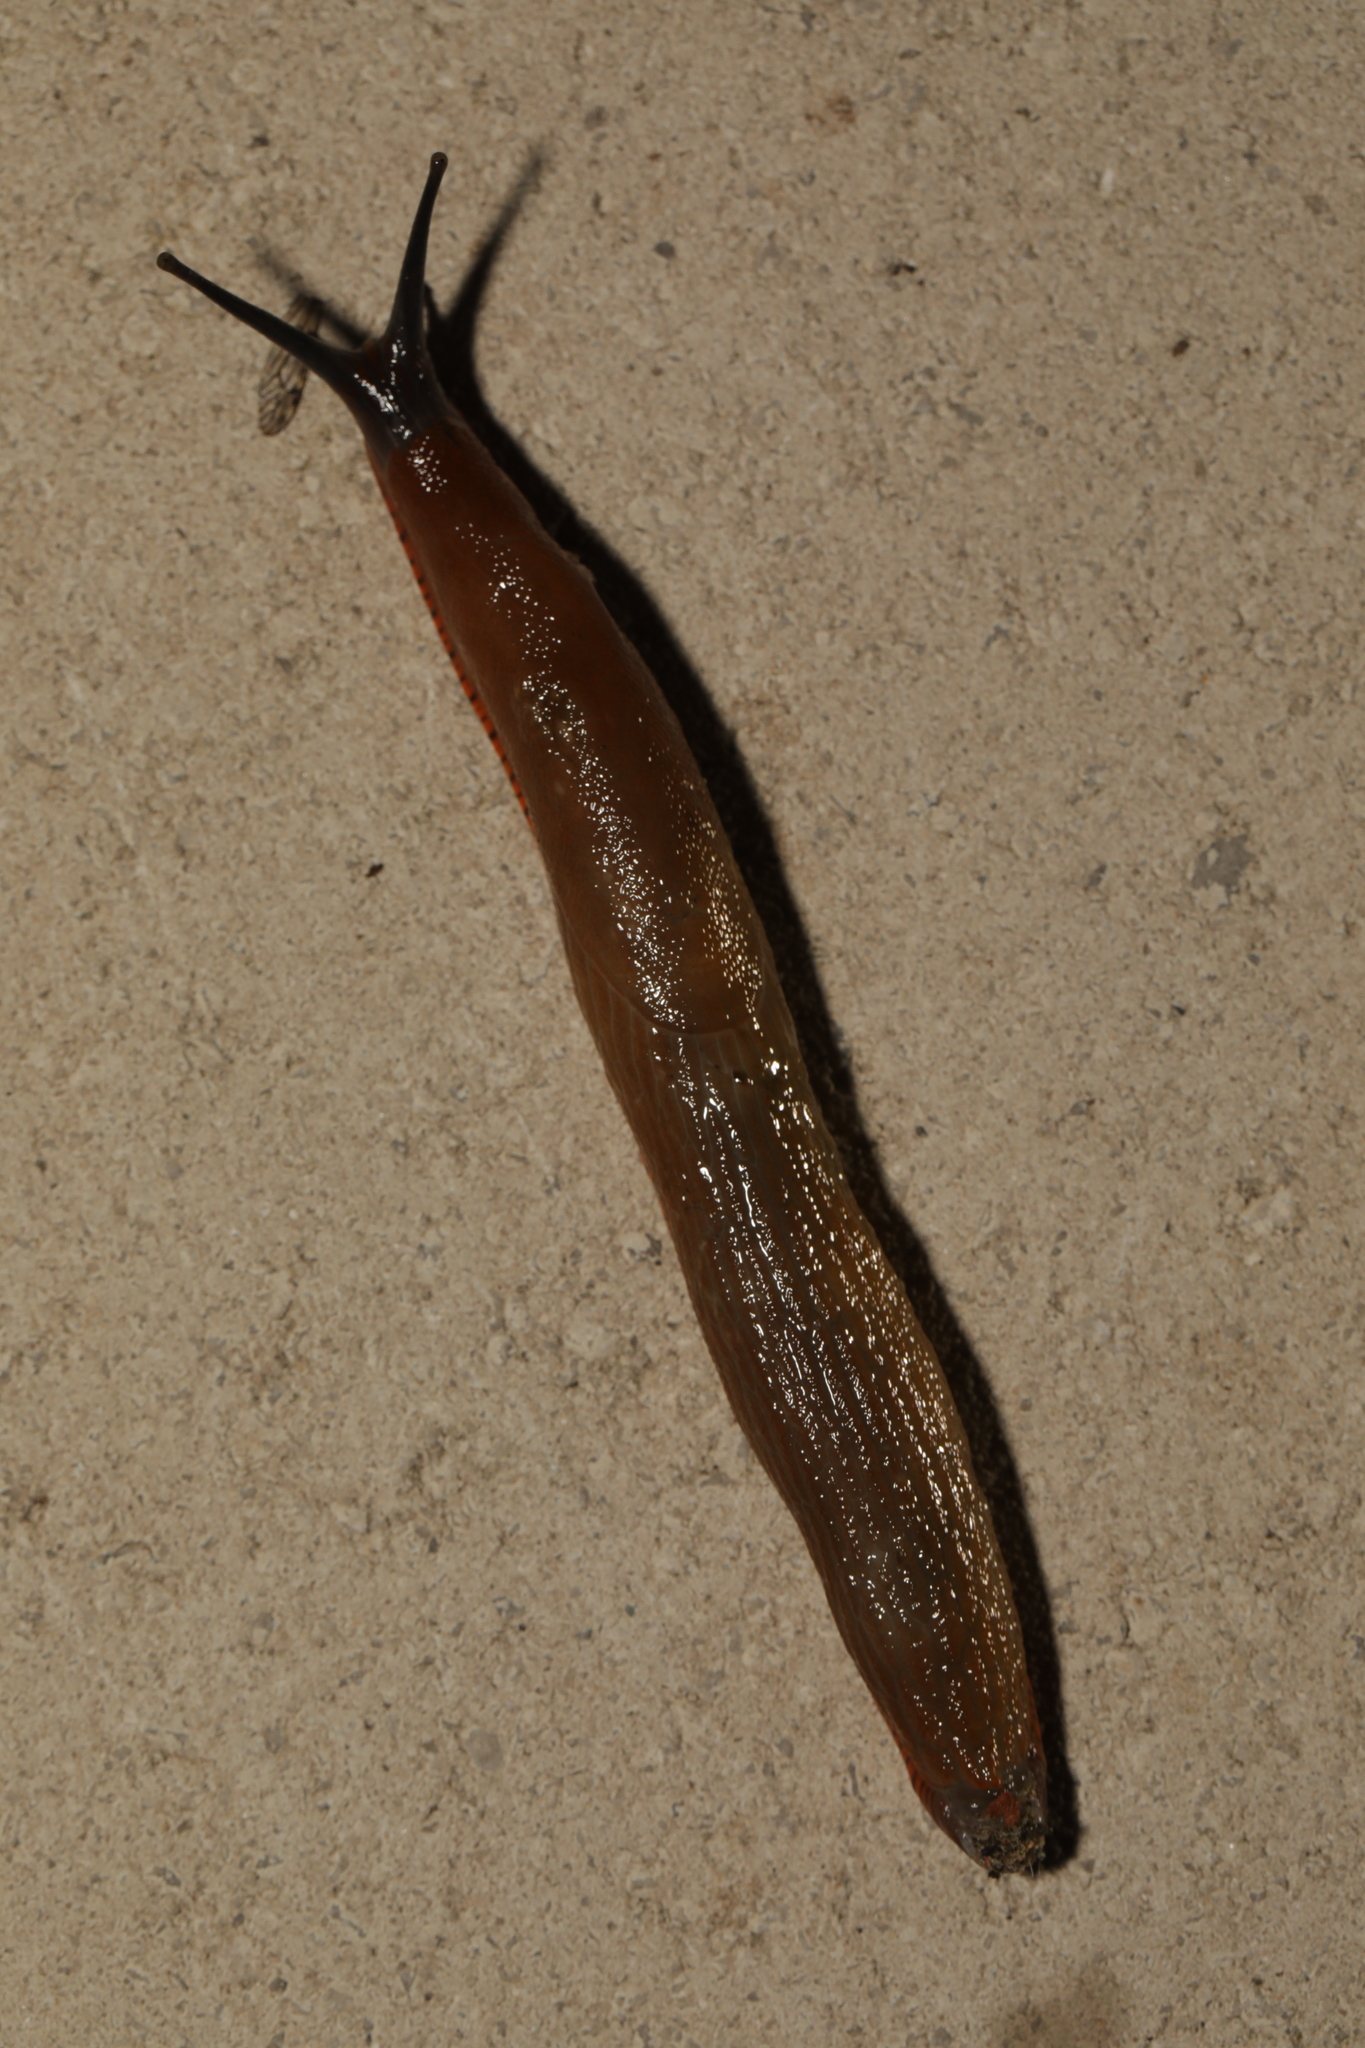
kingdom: Animalia
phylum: Mollusca
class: Gastropoda
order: Stylommatophora
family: Arionidae
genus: Arion
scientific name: Arion
